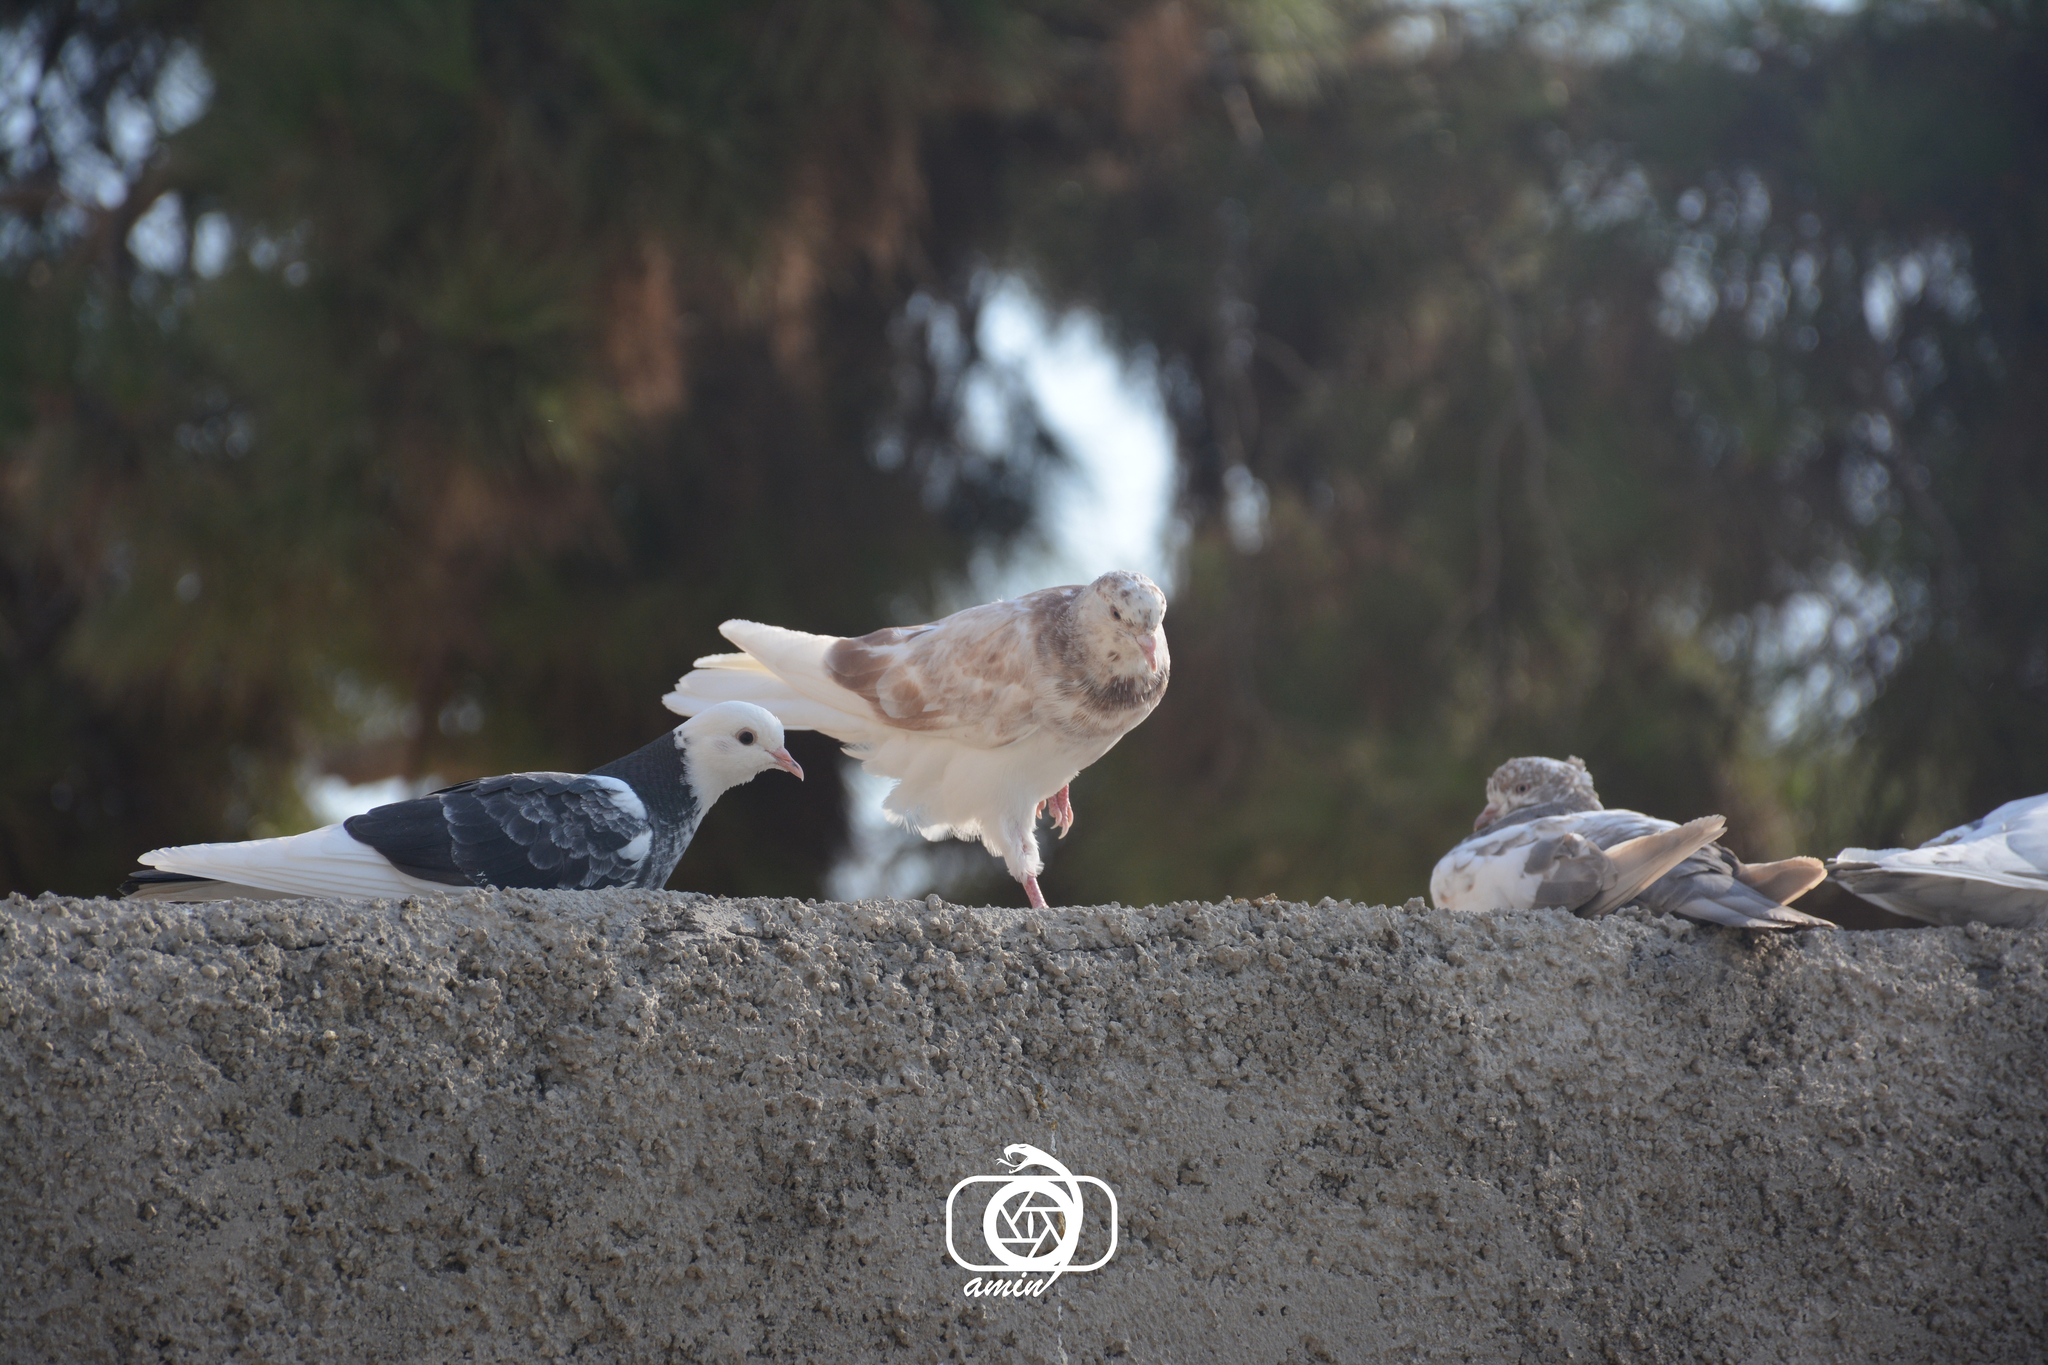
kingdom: Animalia
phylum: Chordata
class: Aves
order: Columbiformes
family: Columbidae
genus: Columba
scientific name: Columba livia
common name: Rock pigeon
